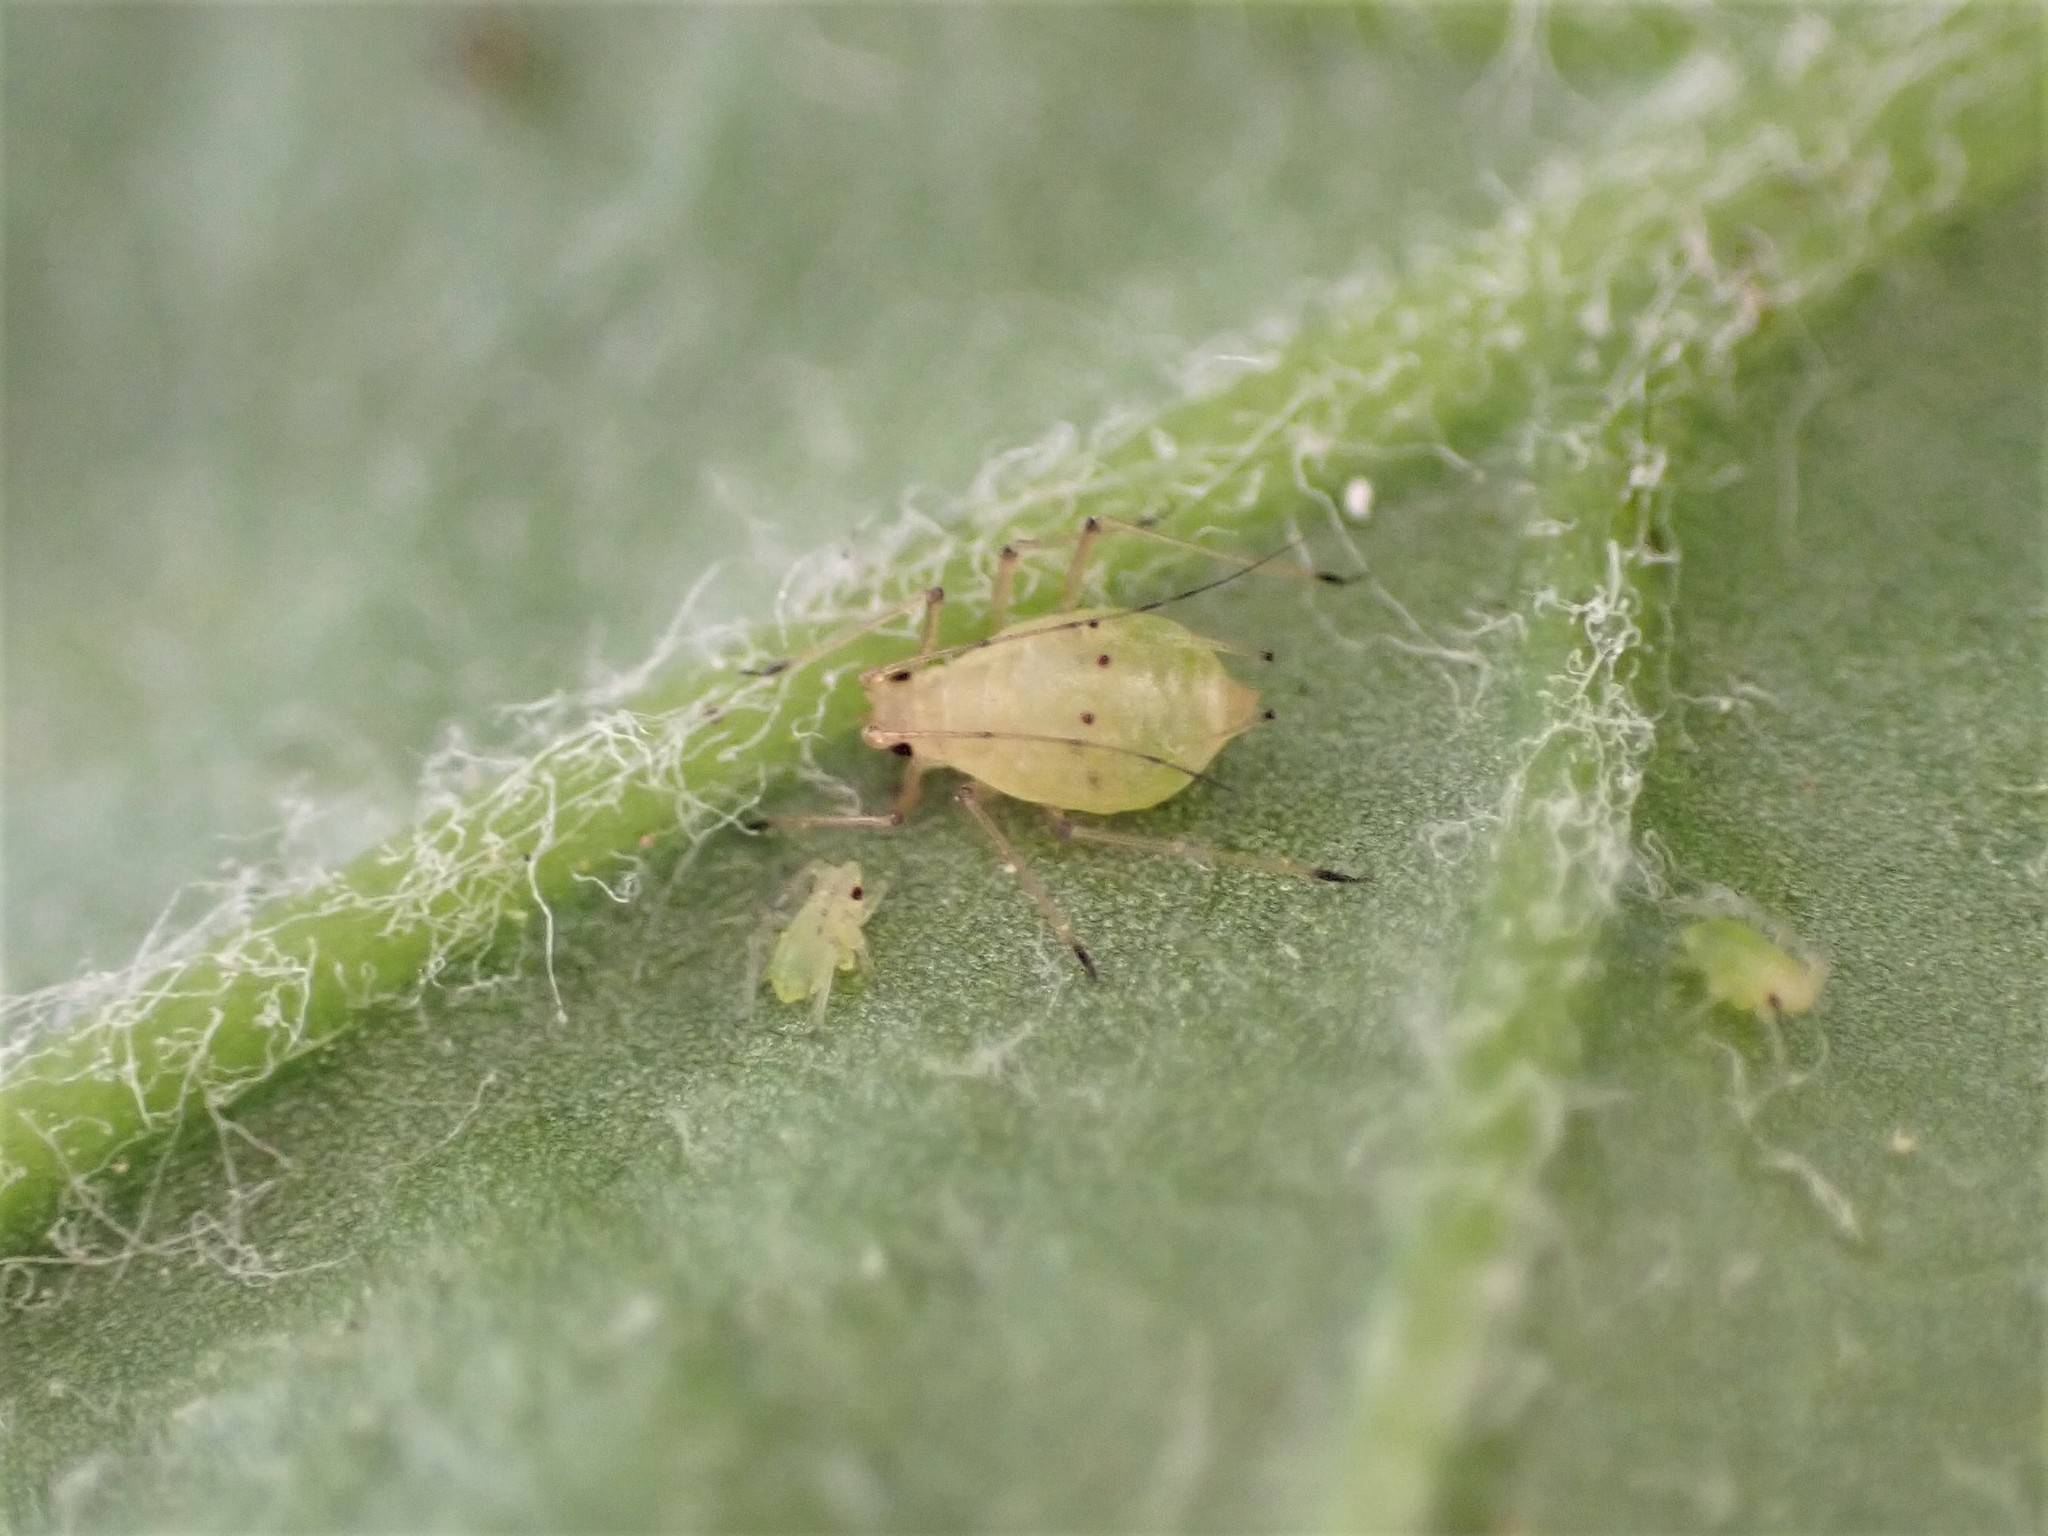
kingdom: Animalia
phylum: Arthropoda
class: Insecta
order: Hemiptera
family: Aphididae
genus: Aulacorthum
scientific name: Aulacorthum solani
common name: Foxglove aphid
